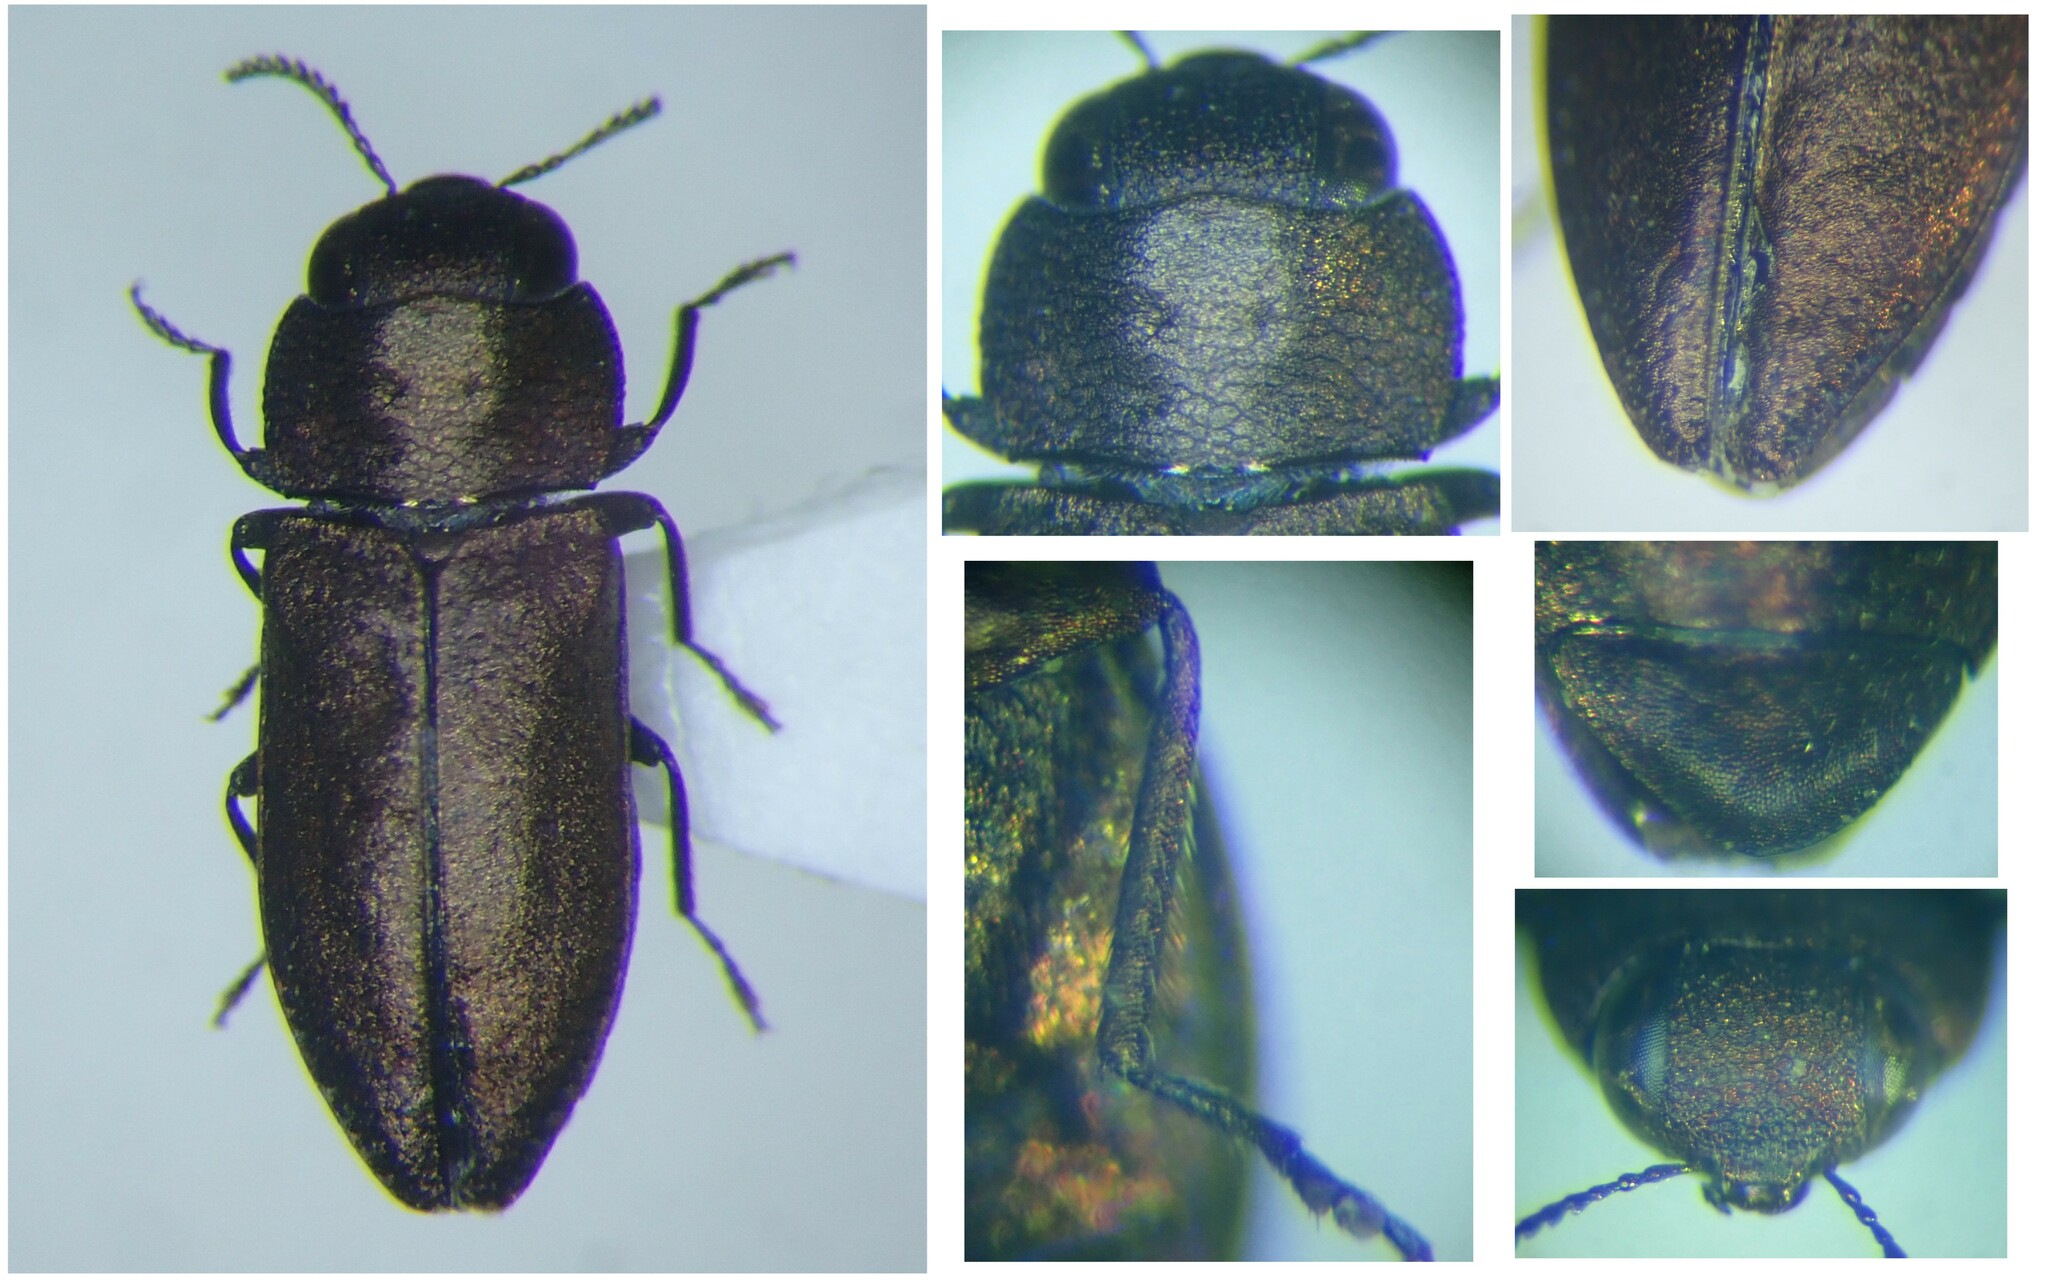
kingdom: Animalia
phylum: Arthropoda
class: Insecta
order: Coleoptera
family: Buprestidae
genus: Anthaxia
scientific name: Anthaxia chevrieri
